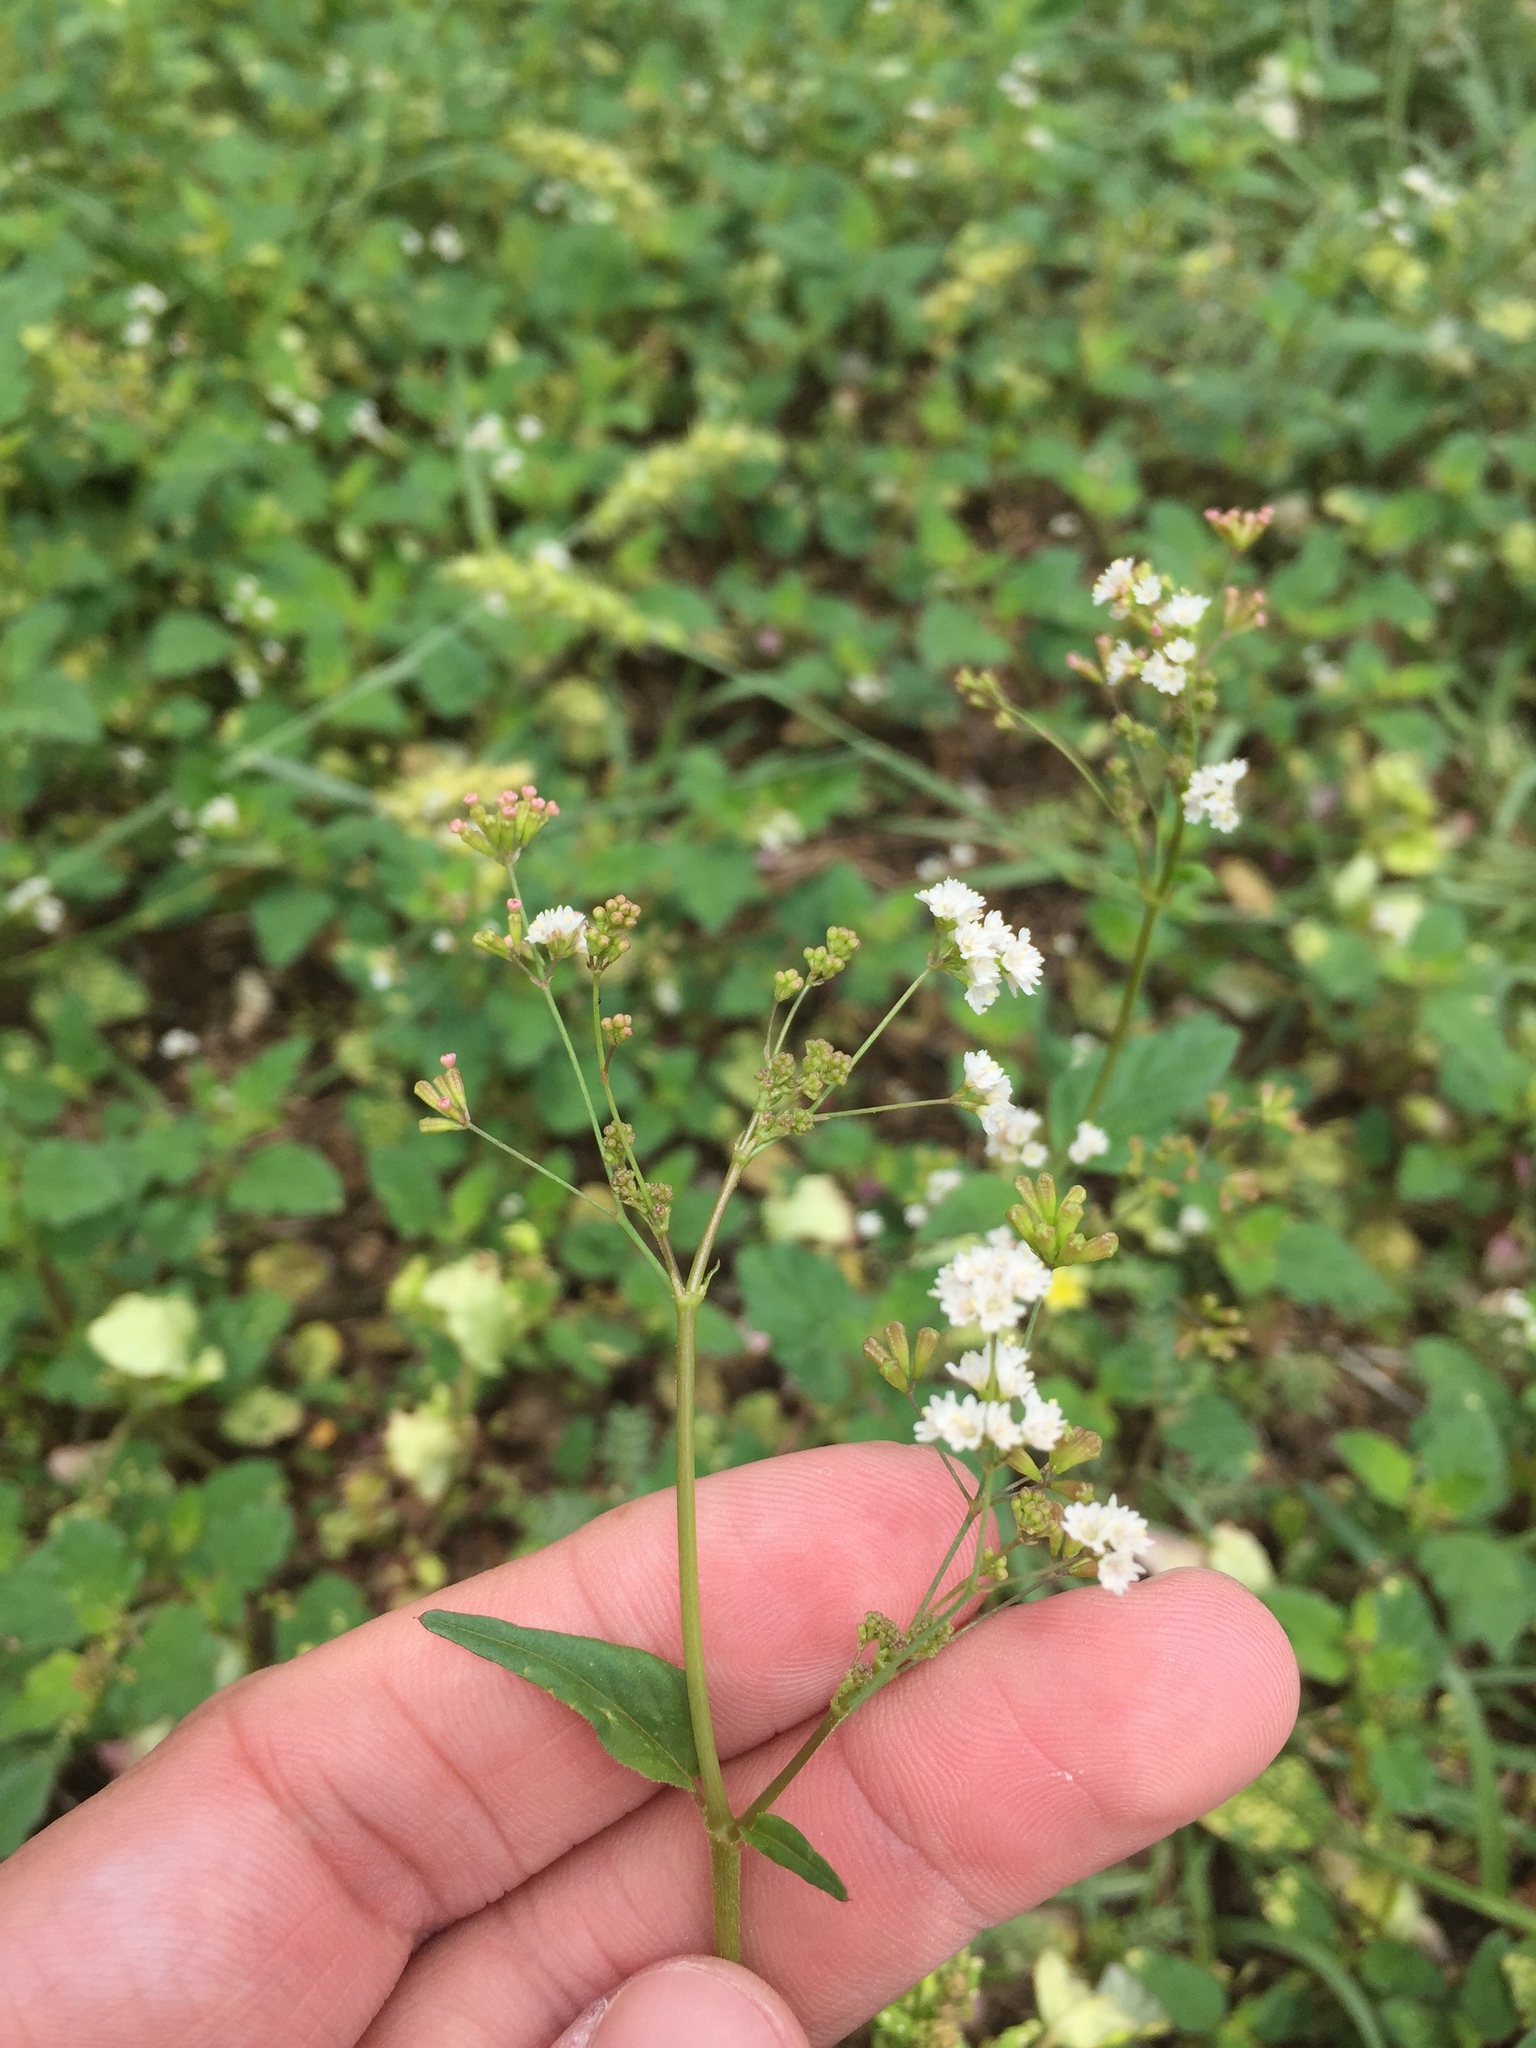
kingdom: Plantae
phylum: Tracheophyta
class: Magnoliopsida
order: Caryophyllales
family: Nyctaginaceae
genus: Boerhavia
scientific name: Boerhavia erecta
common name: Erect spiderling
